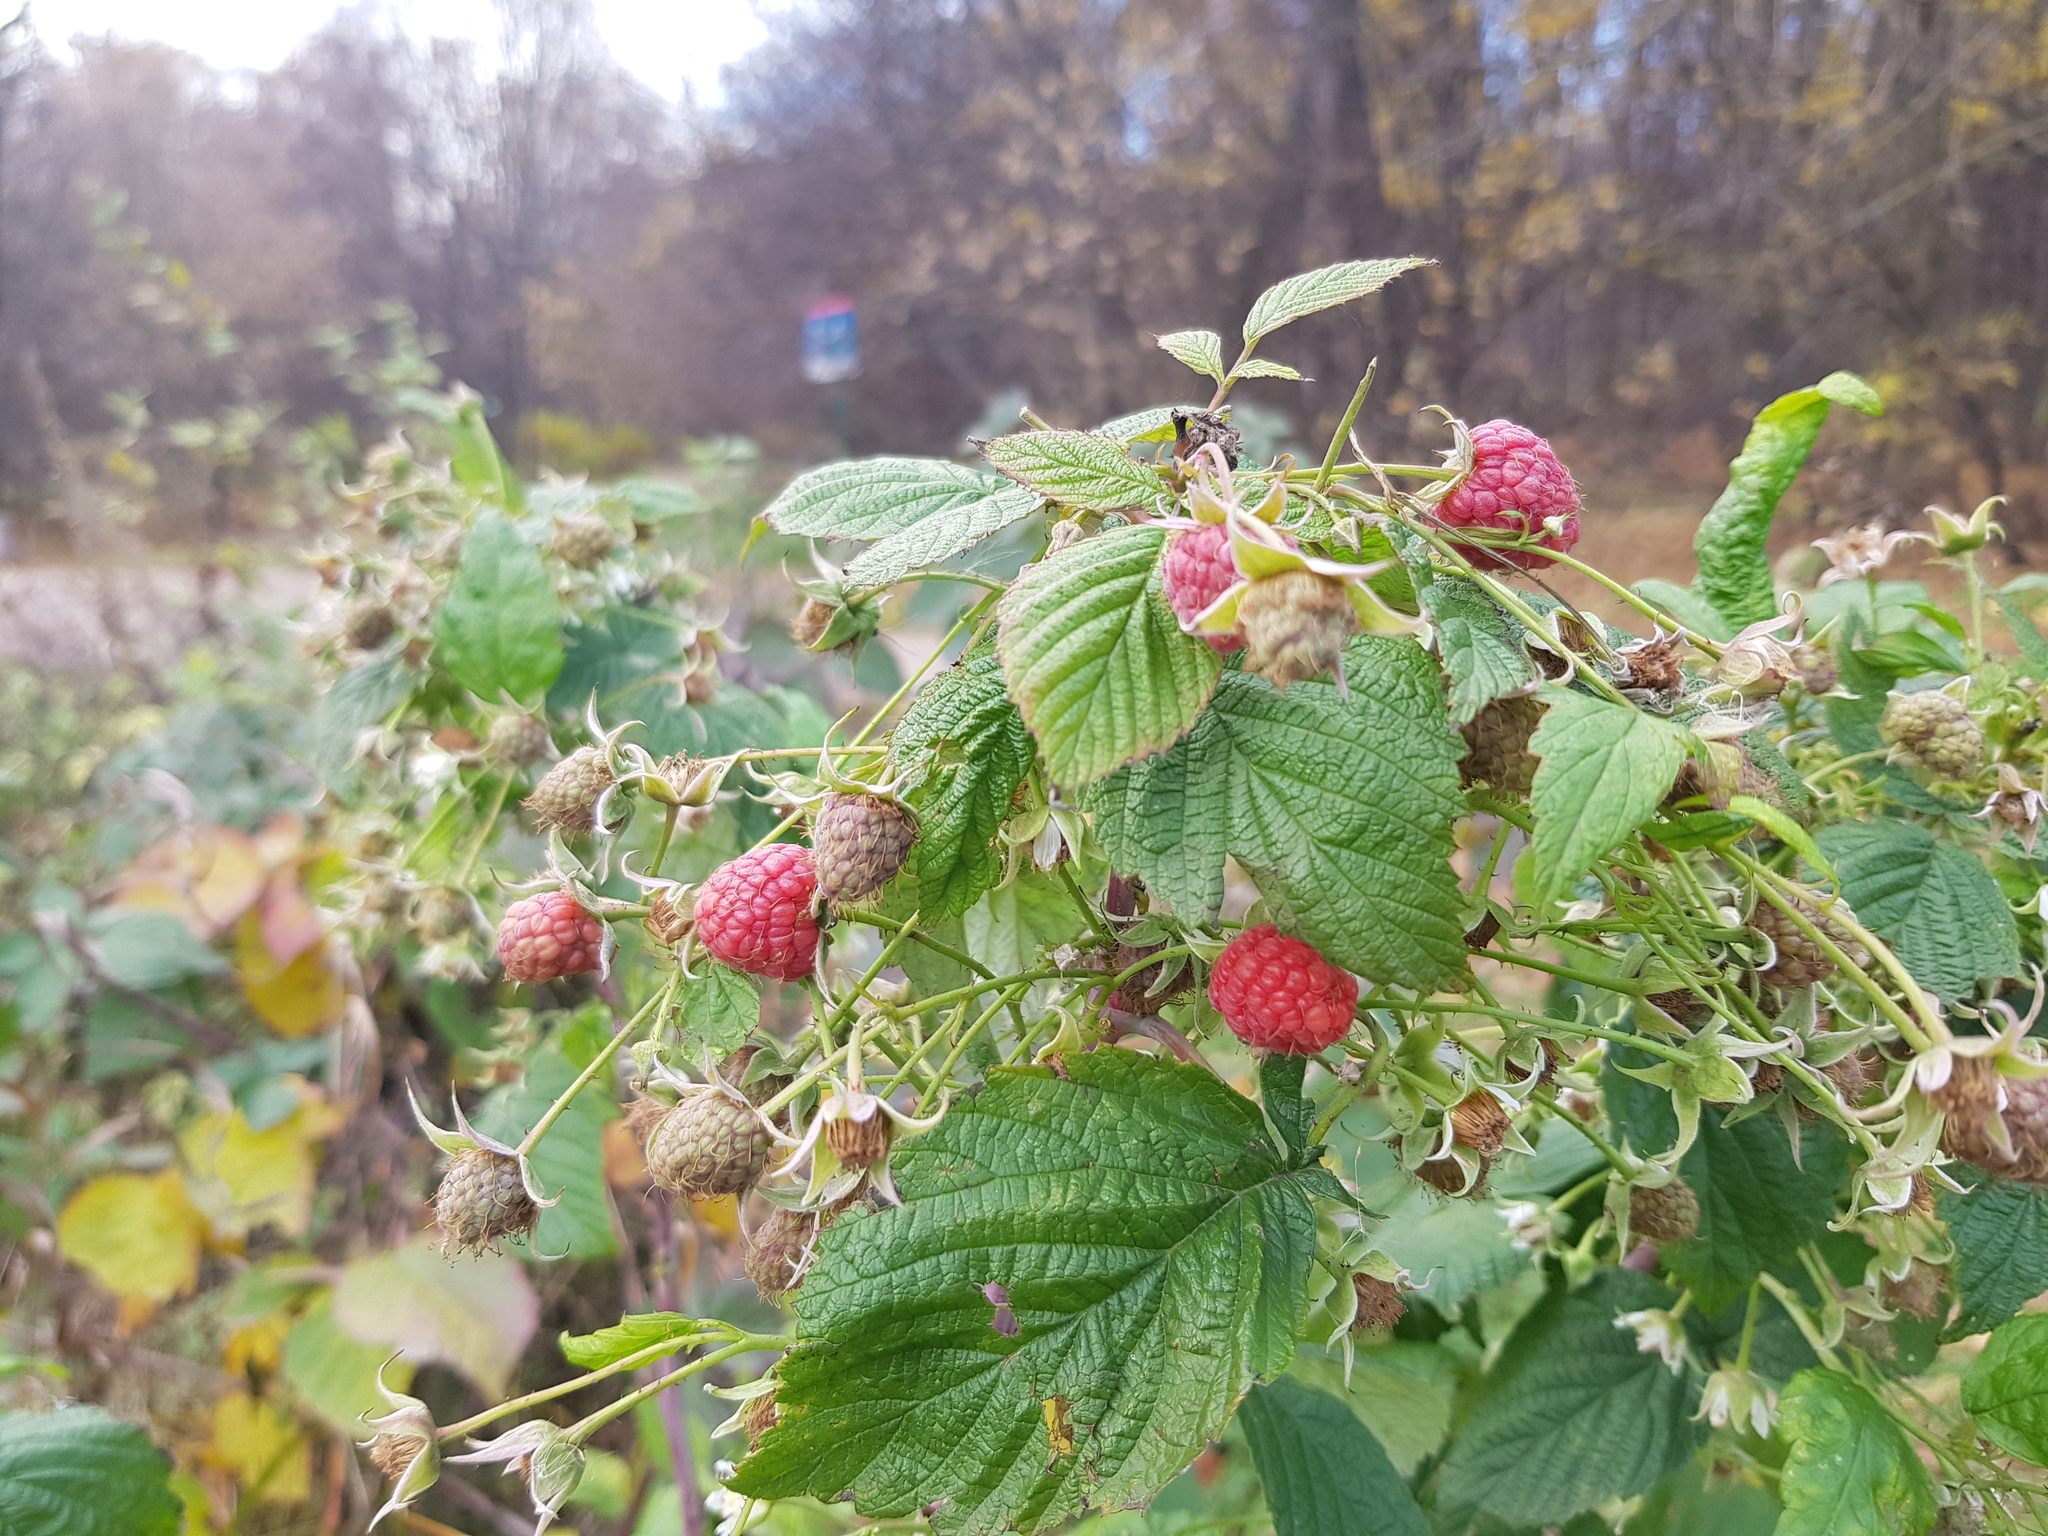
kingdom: Plantae
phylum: Tracheophyta
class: Magnoliopsida
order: Rosales
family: Rosaceae
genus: Rubus
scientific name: Rubus idaeus
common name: Raspberry
